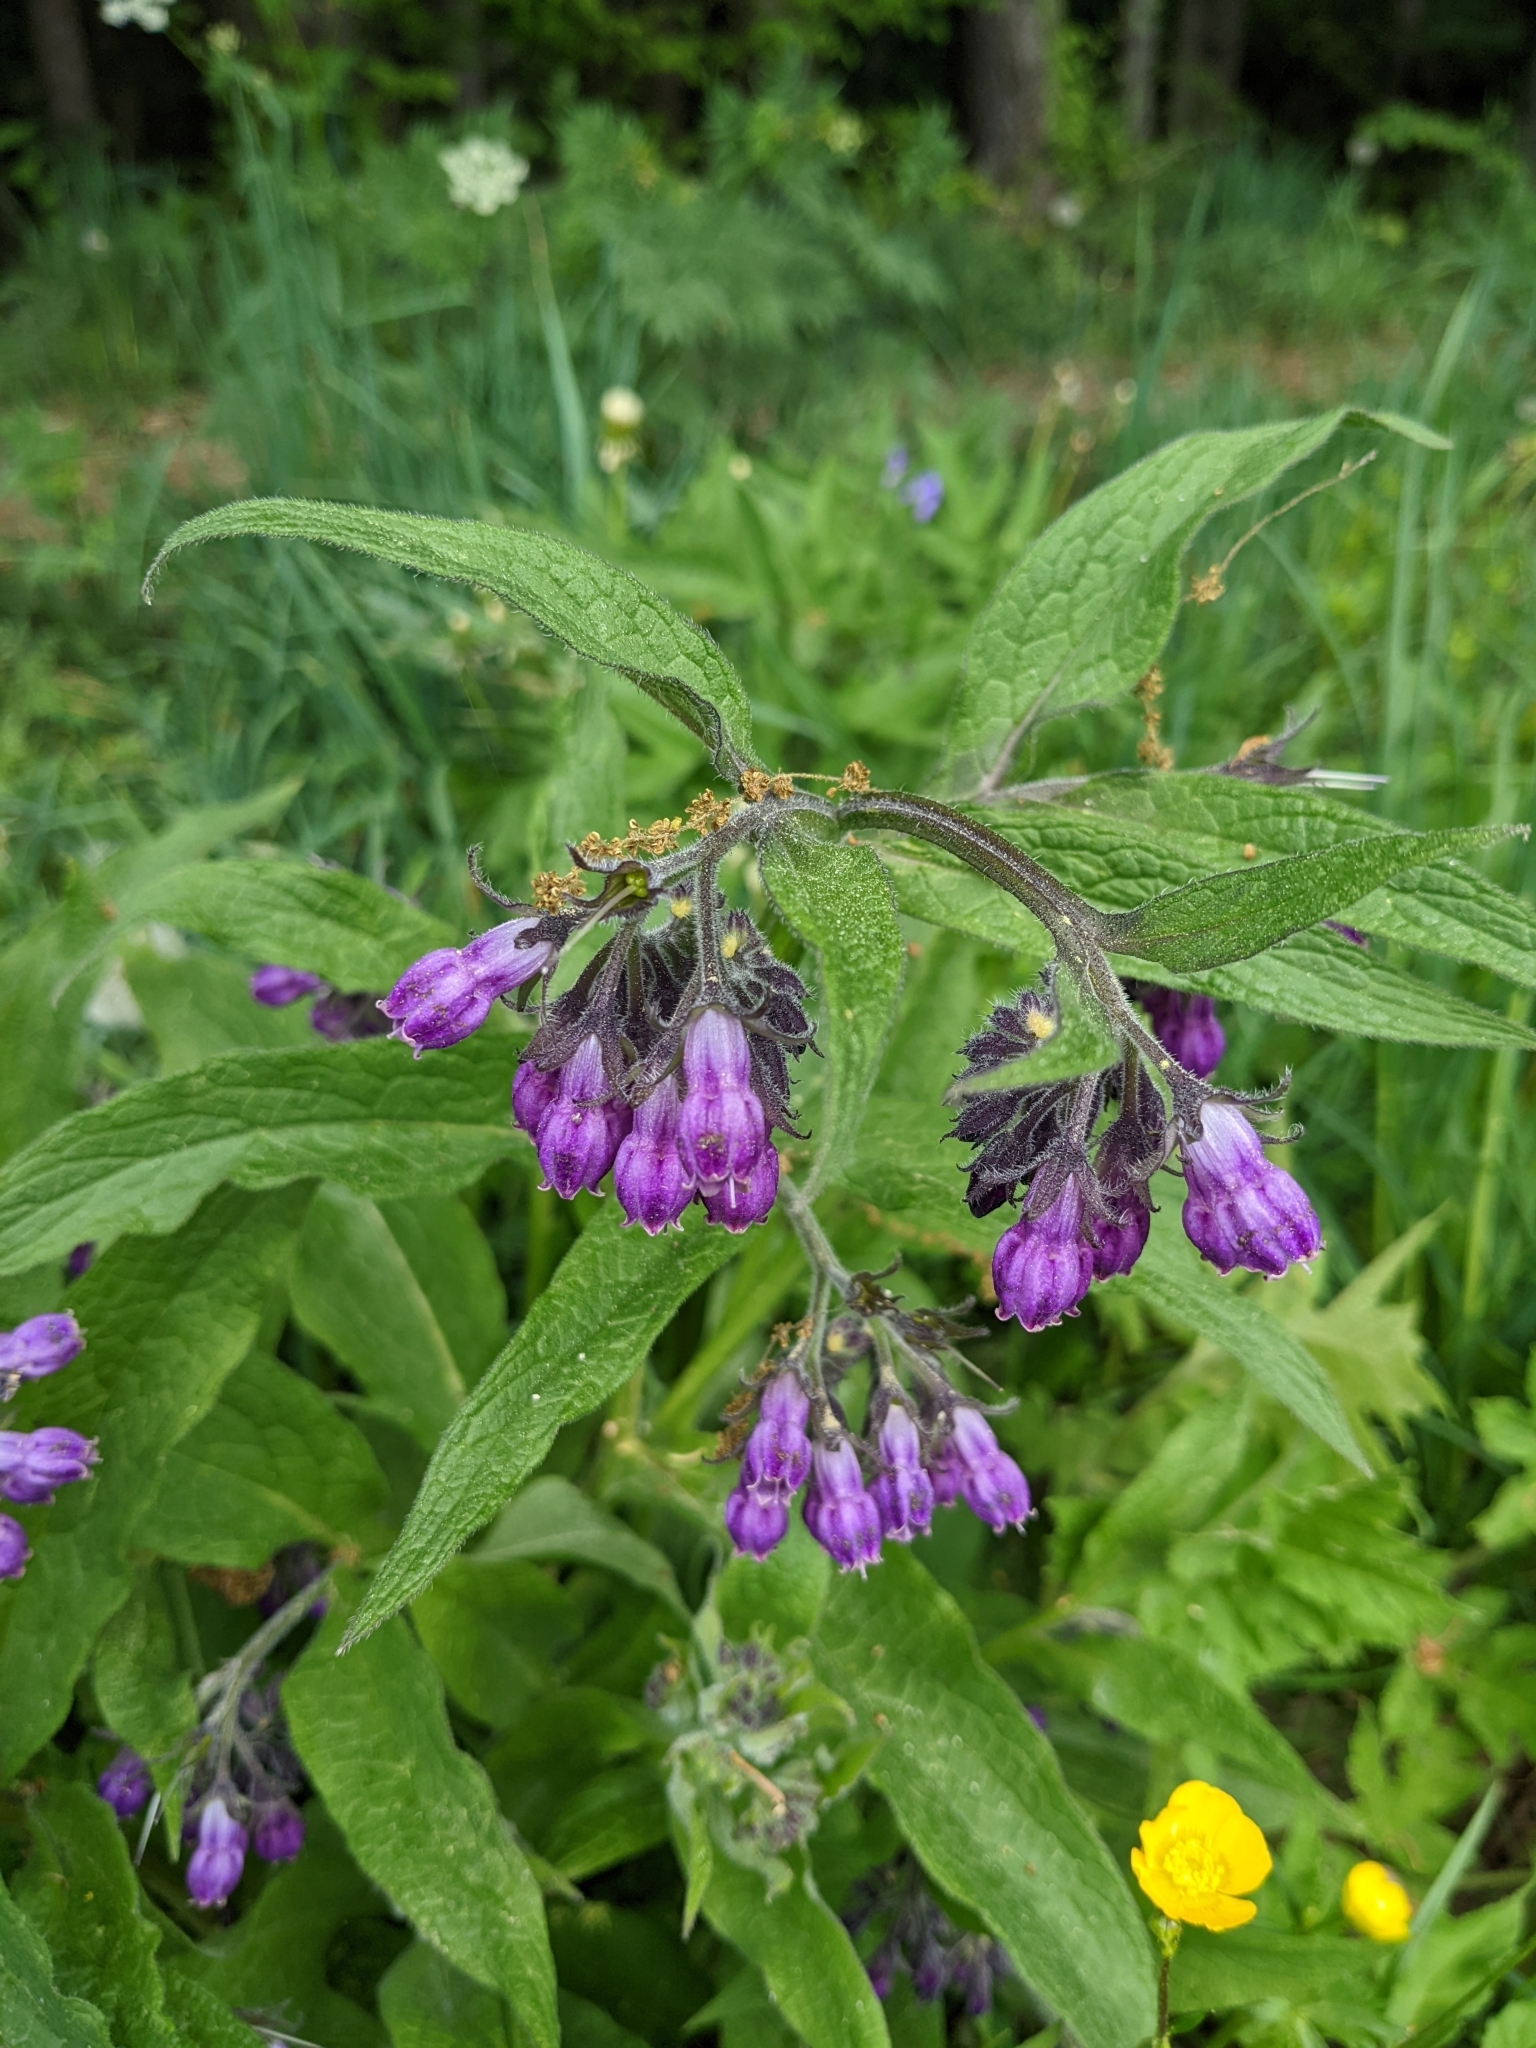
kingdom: Plantae
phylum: Tracheophyta
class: Magnoliopsida
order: Boraginales
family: Boraginaceae
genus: Symphytum
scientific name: Symphytum officinale
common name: Common comfrey
